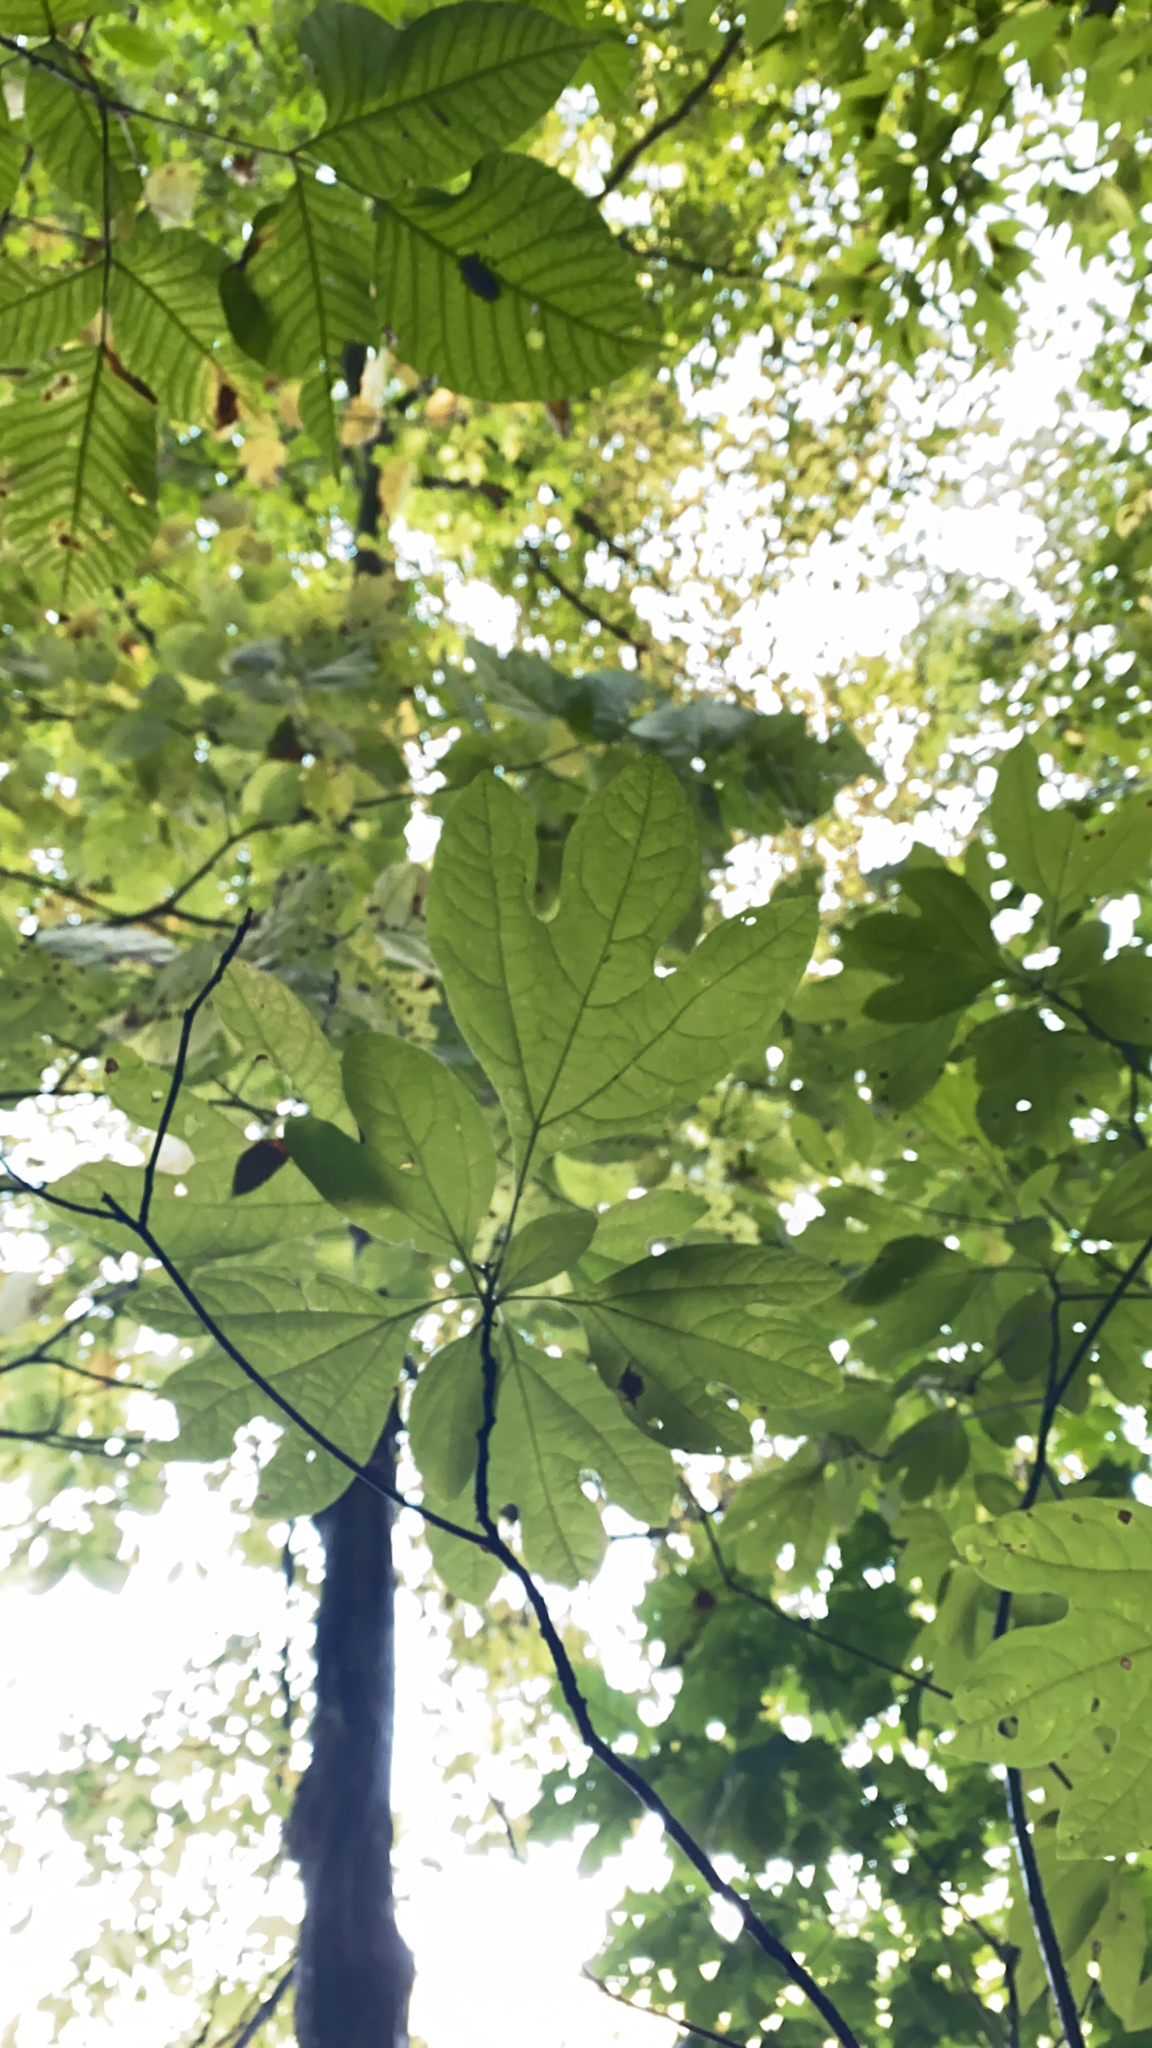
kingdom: Plantae
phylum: Tracheophyta
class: Magnoliopsida
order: Laurales
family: Lauraceae
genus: Sassafras
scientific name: Sassafras albidum
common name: Sassafras
